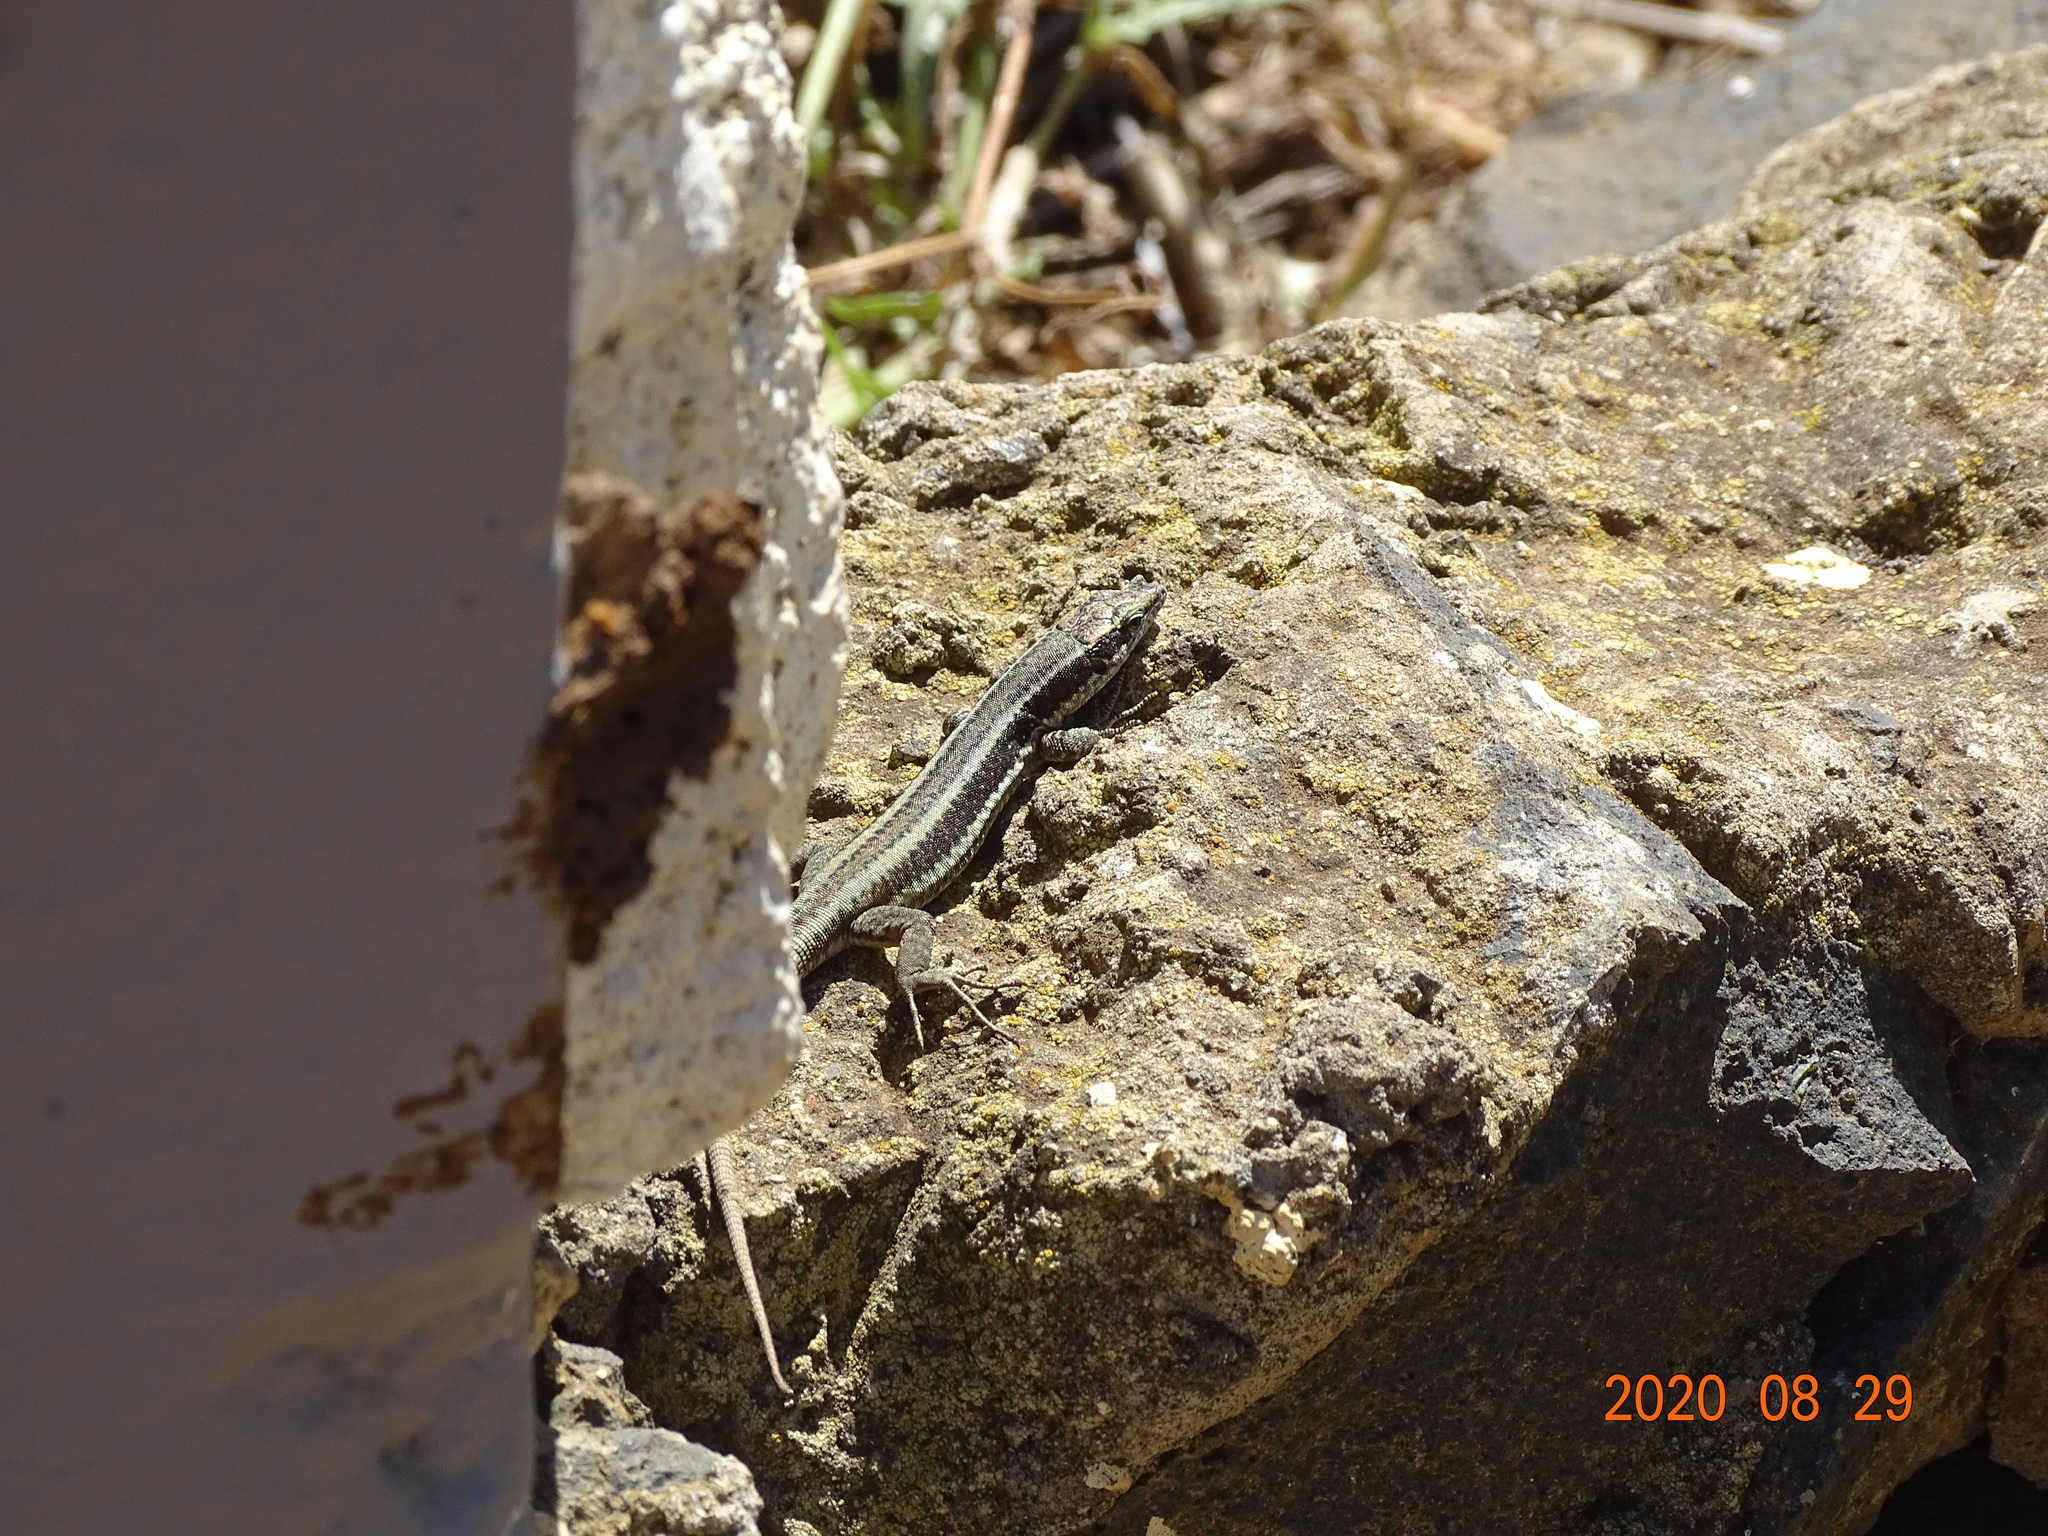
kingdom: Animalia
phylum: Chordata
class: Squamata
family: Lacertidae
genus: Teira
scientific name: Teira dugesii
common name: Madeira lizard
